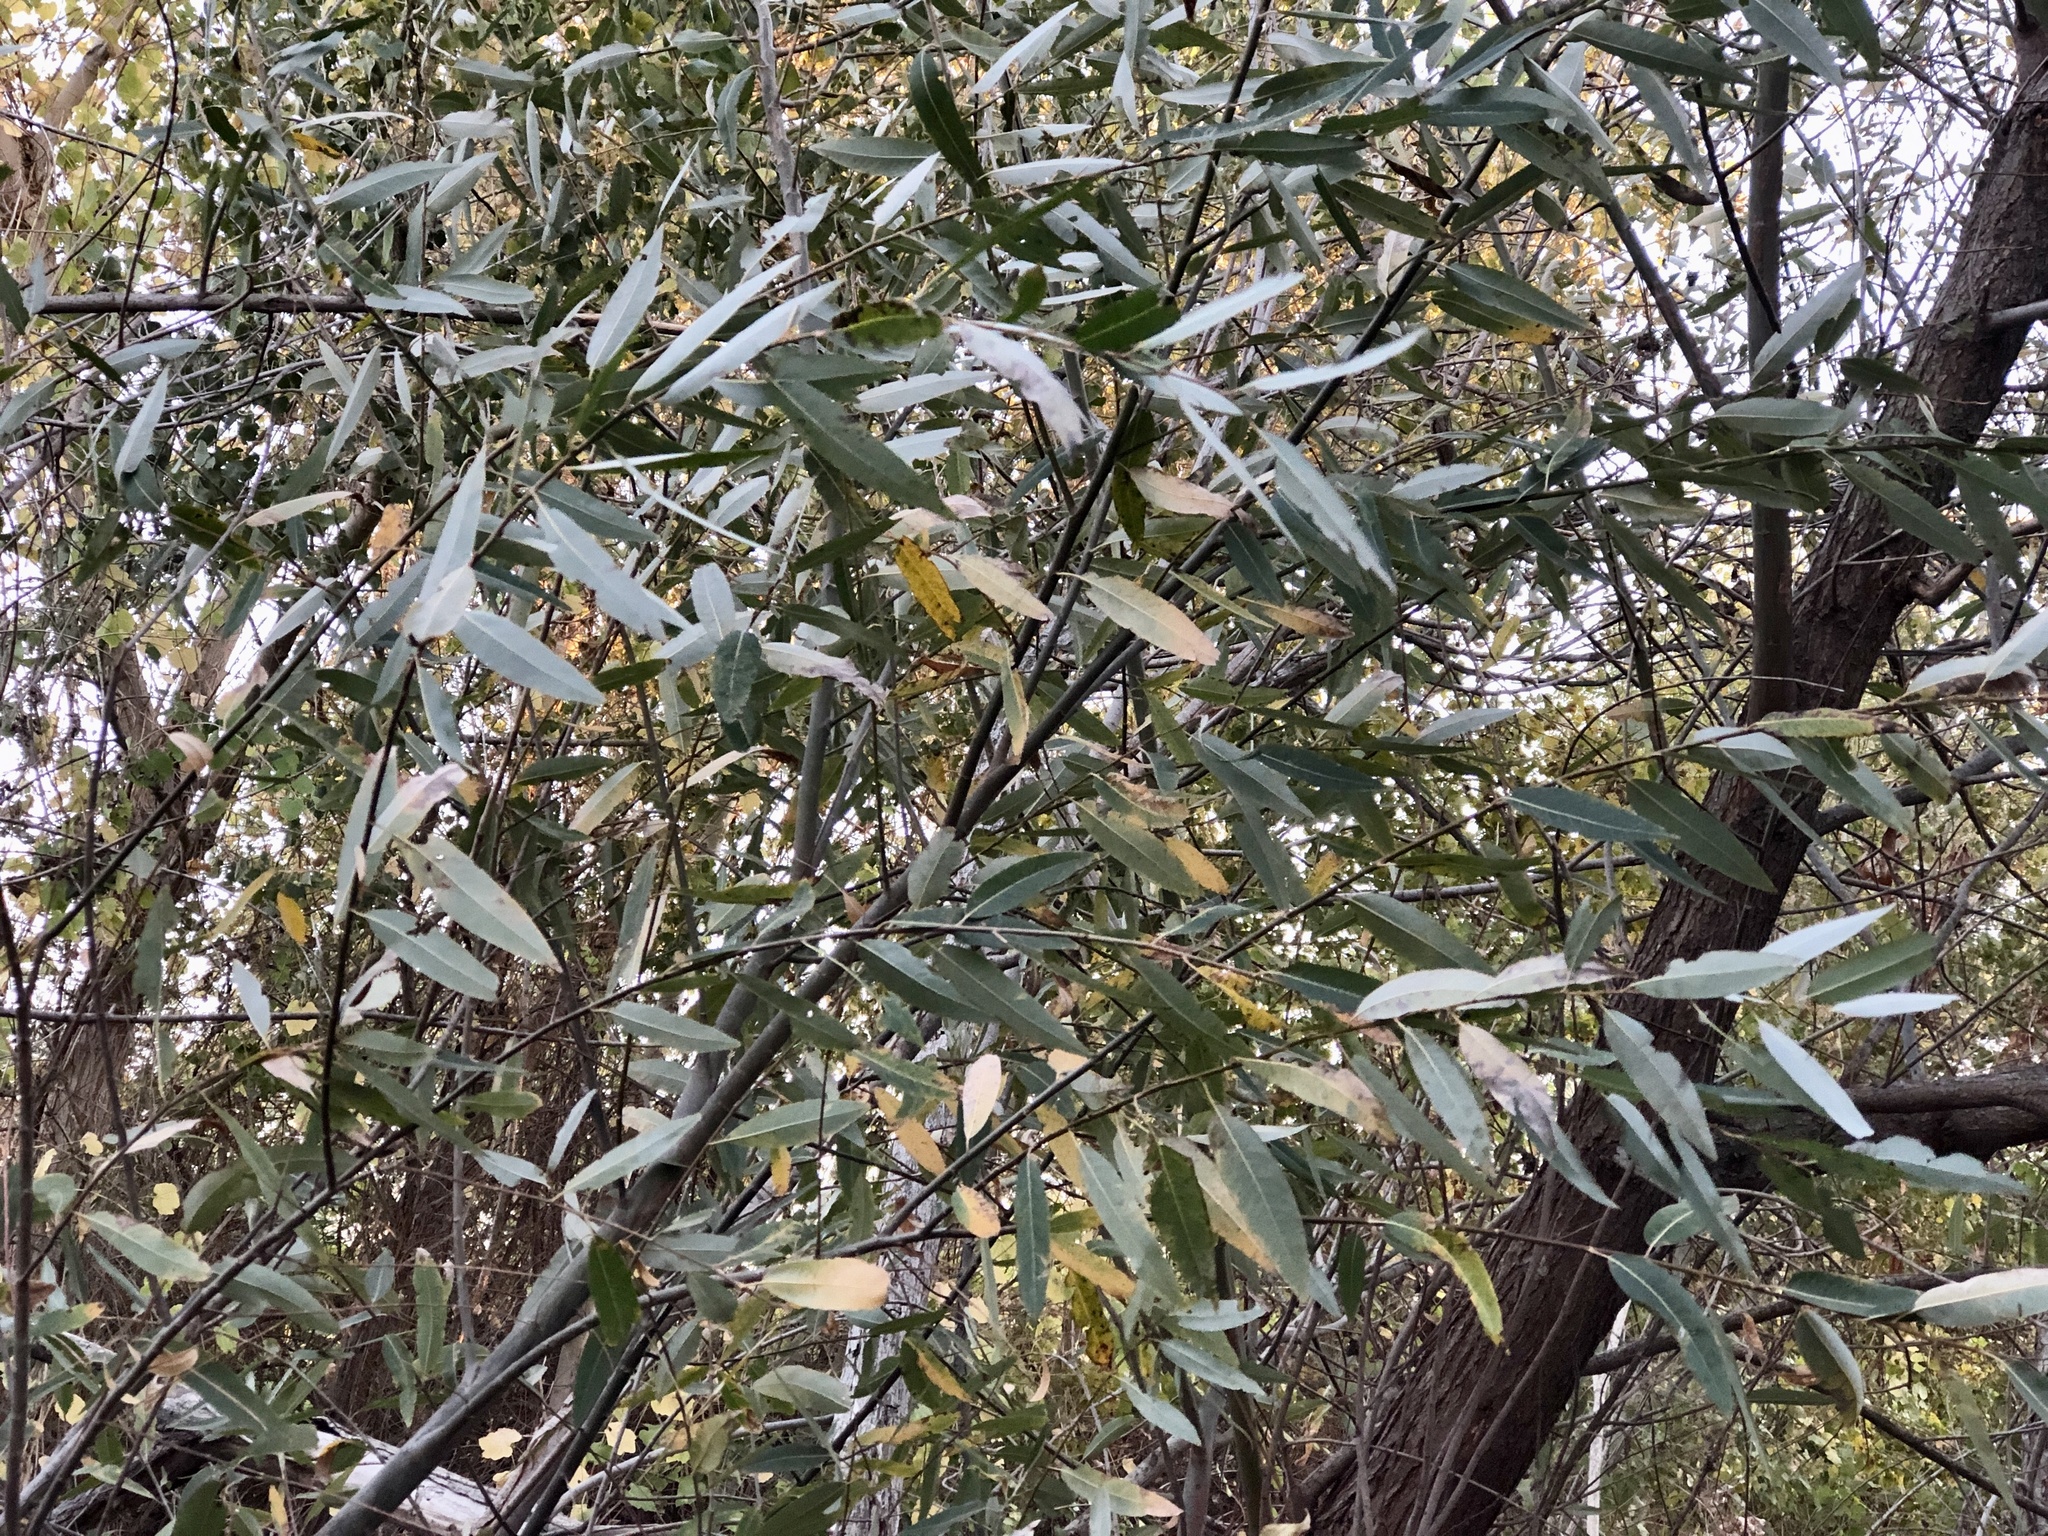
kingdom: Plantae
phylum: Tracheophyta
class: Magnoliopsida
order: Malpighiales
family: Salicaceae
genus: Salix
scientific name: Salix lasiolepis
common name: Arroyo willow
